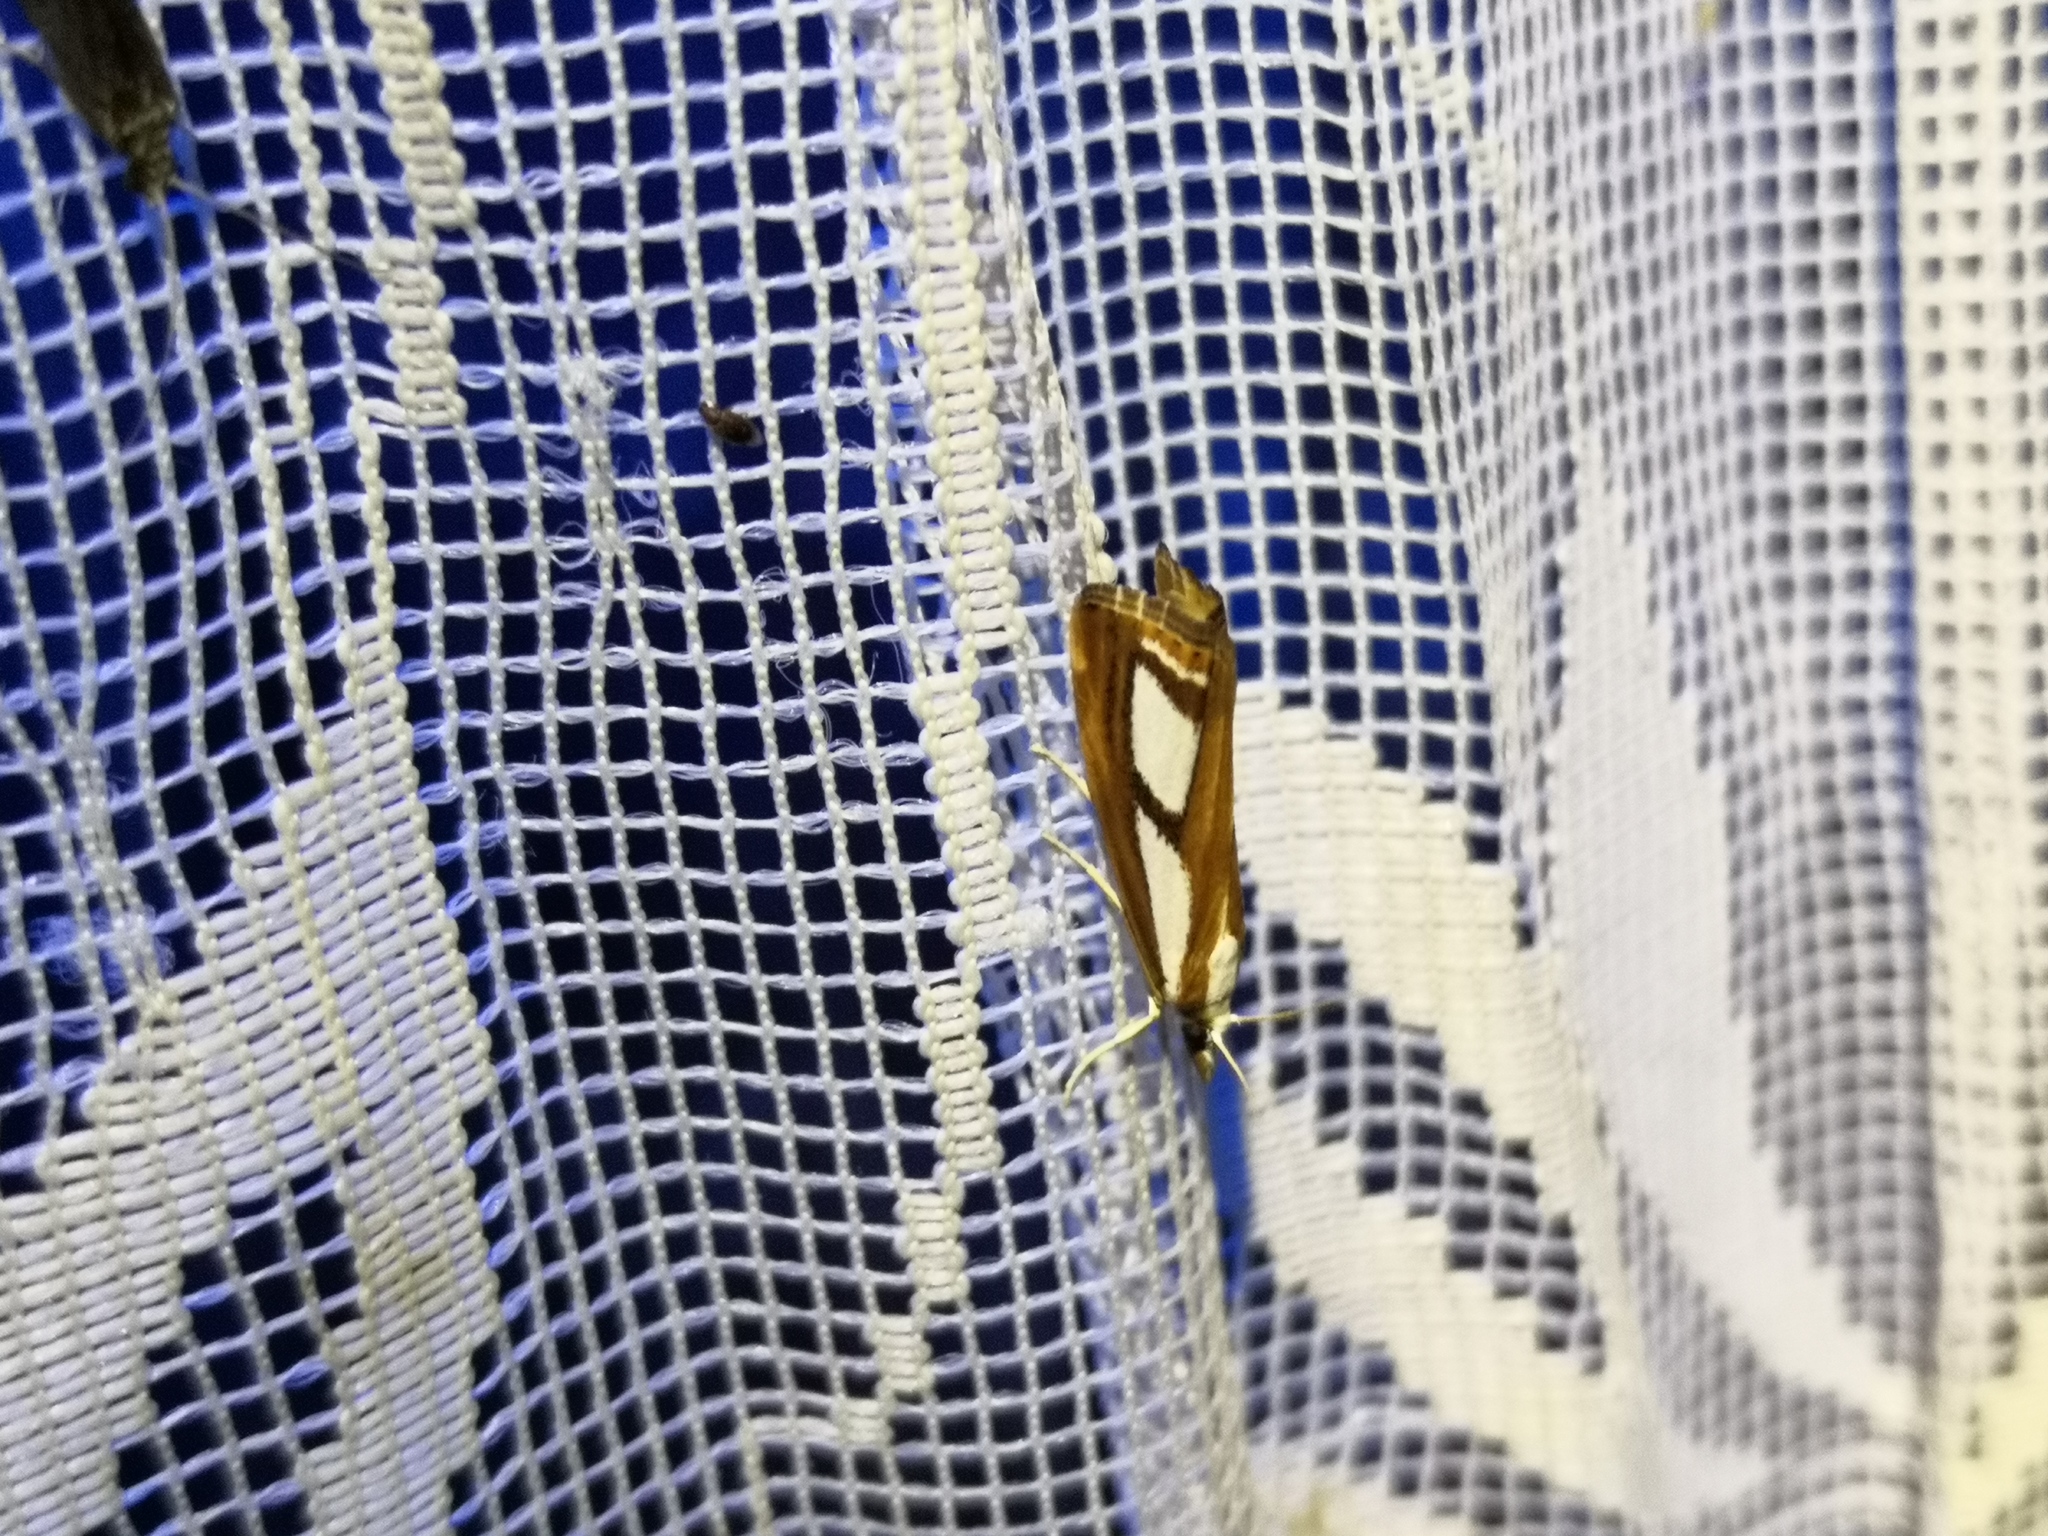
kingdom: Animalia
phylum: Arthropoda
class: Insecta
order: Lepidoptera
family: Crambidae
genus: Catoptria
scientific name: Catoptria permutatellus
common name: Scotch grass-veneer
